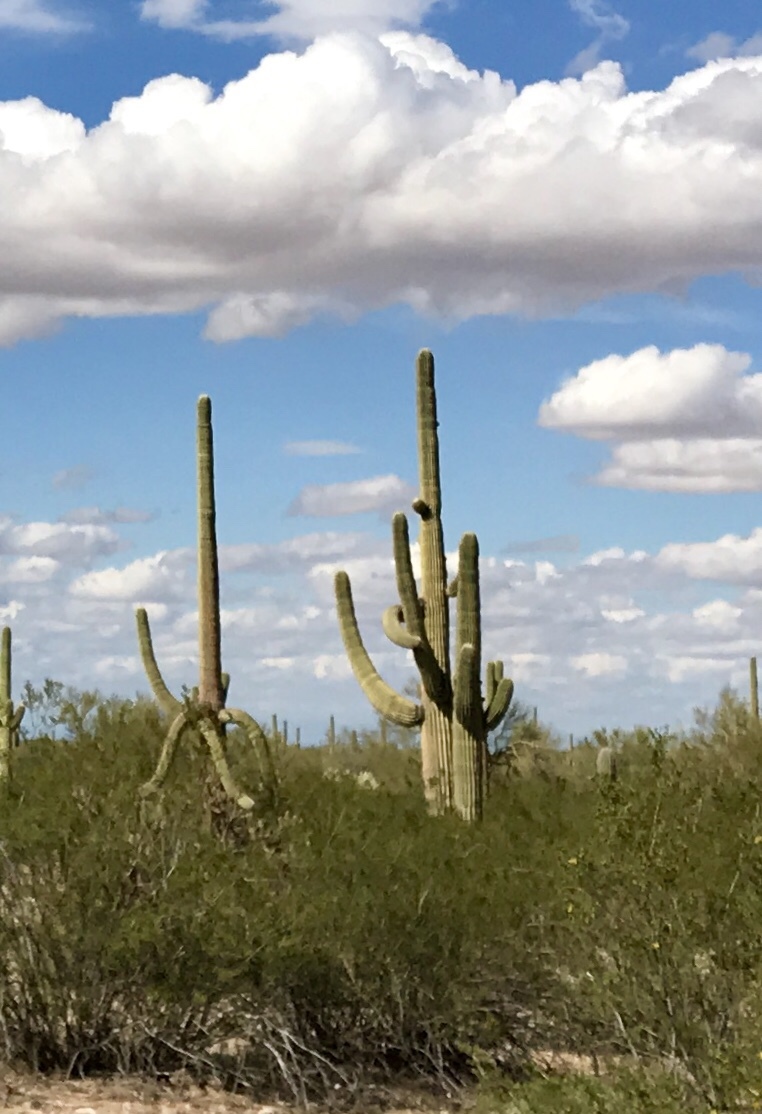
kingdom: Plantae
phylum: Tracheophyta
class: Magnoliopsida
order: Caryophyllales
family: Cactaceae
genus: Carnegiea
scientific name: Carnegiea gigantea
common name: Saguaro
